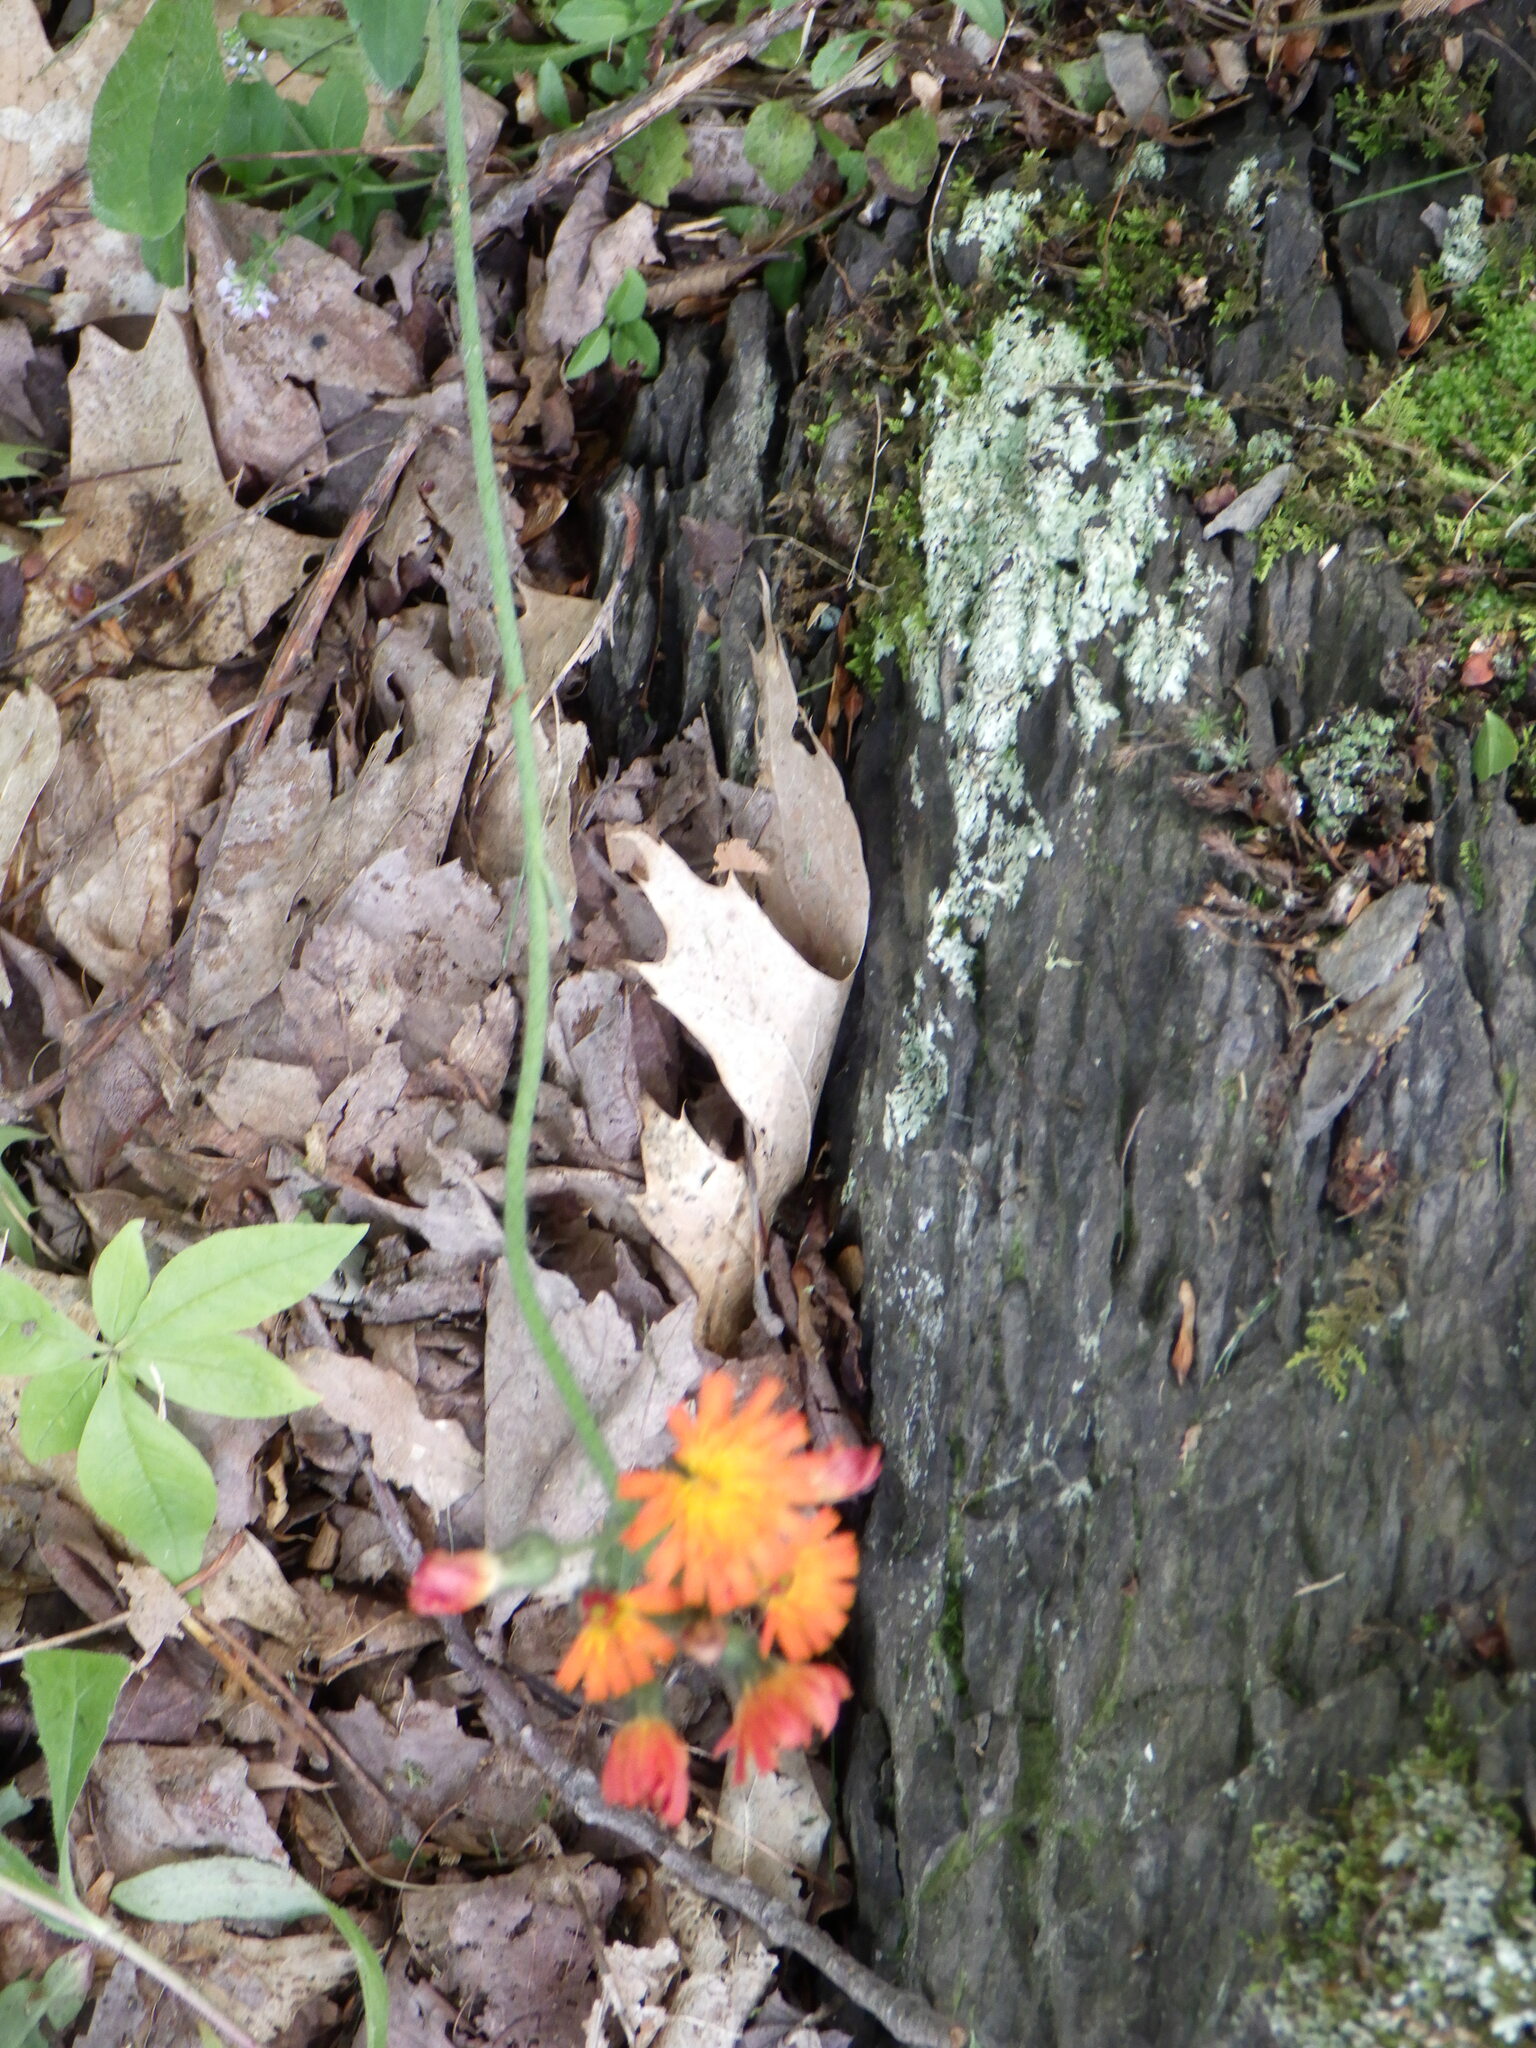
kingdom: Plantae
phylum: Tracheophyta
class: Magnoliopsida
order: Asterales
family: Asteraceae
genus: Pilosella
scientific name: Pilosella aurantiaca
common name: Fox-and-cubs
